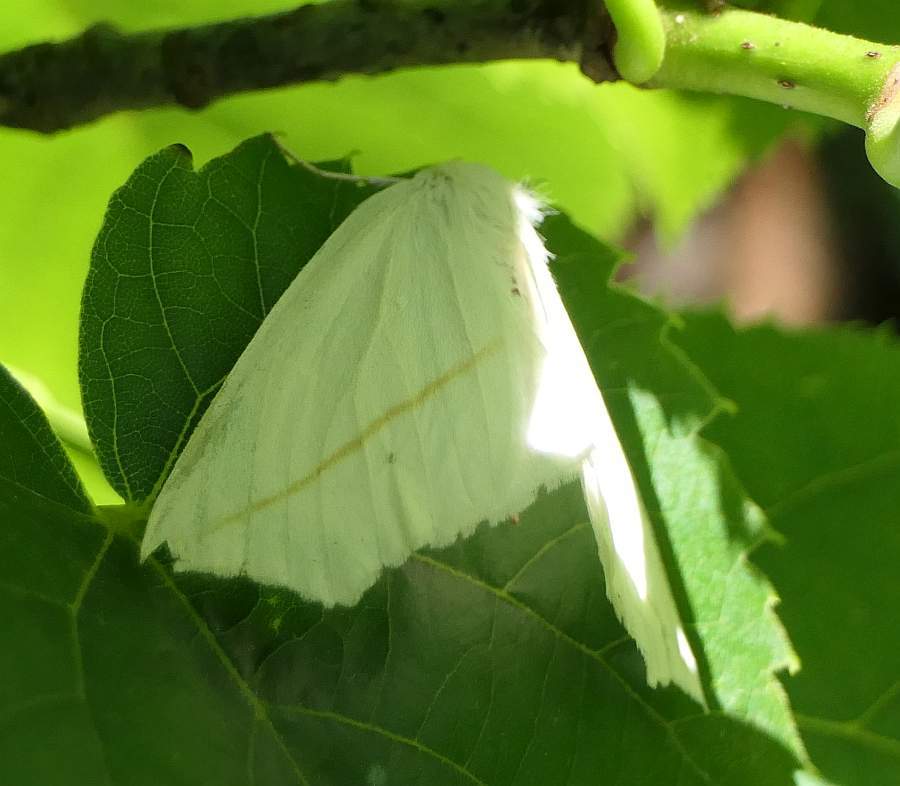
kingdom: Animalia
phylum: Arthropoda
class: Insecta
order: Lepidoptera
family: Geometridae
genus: Tetracis
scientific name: Tetracis cachexiata
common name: White slant-line
